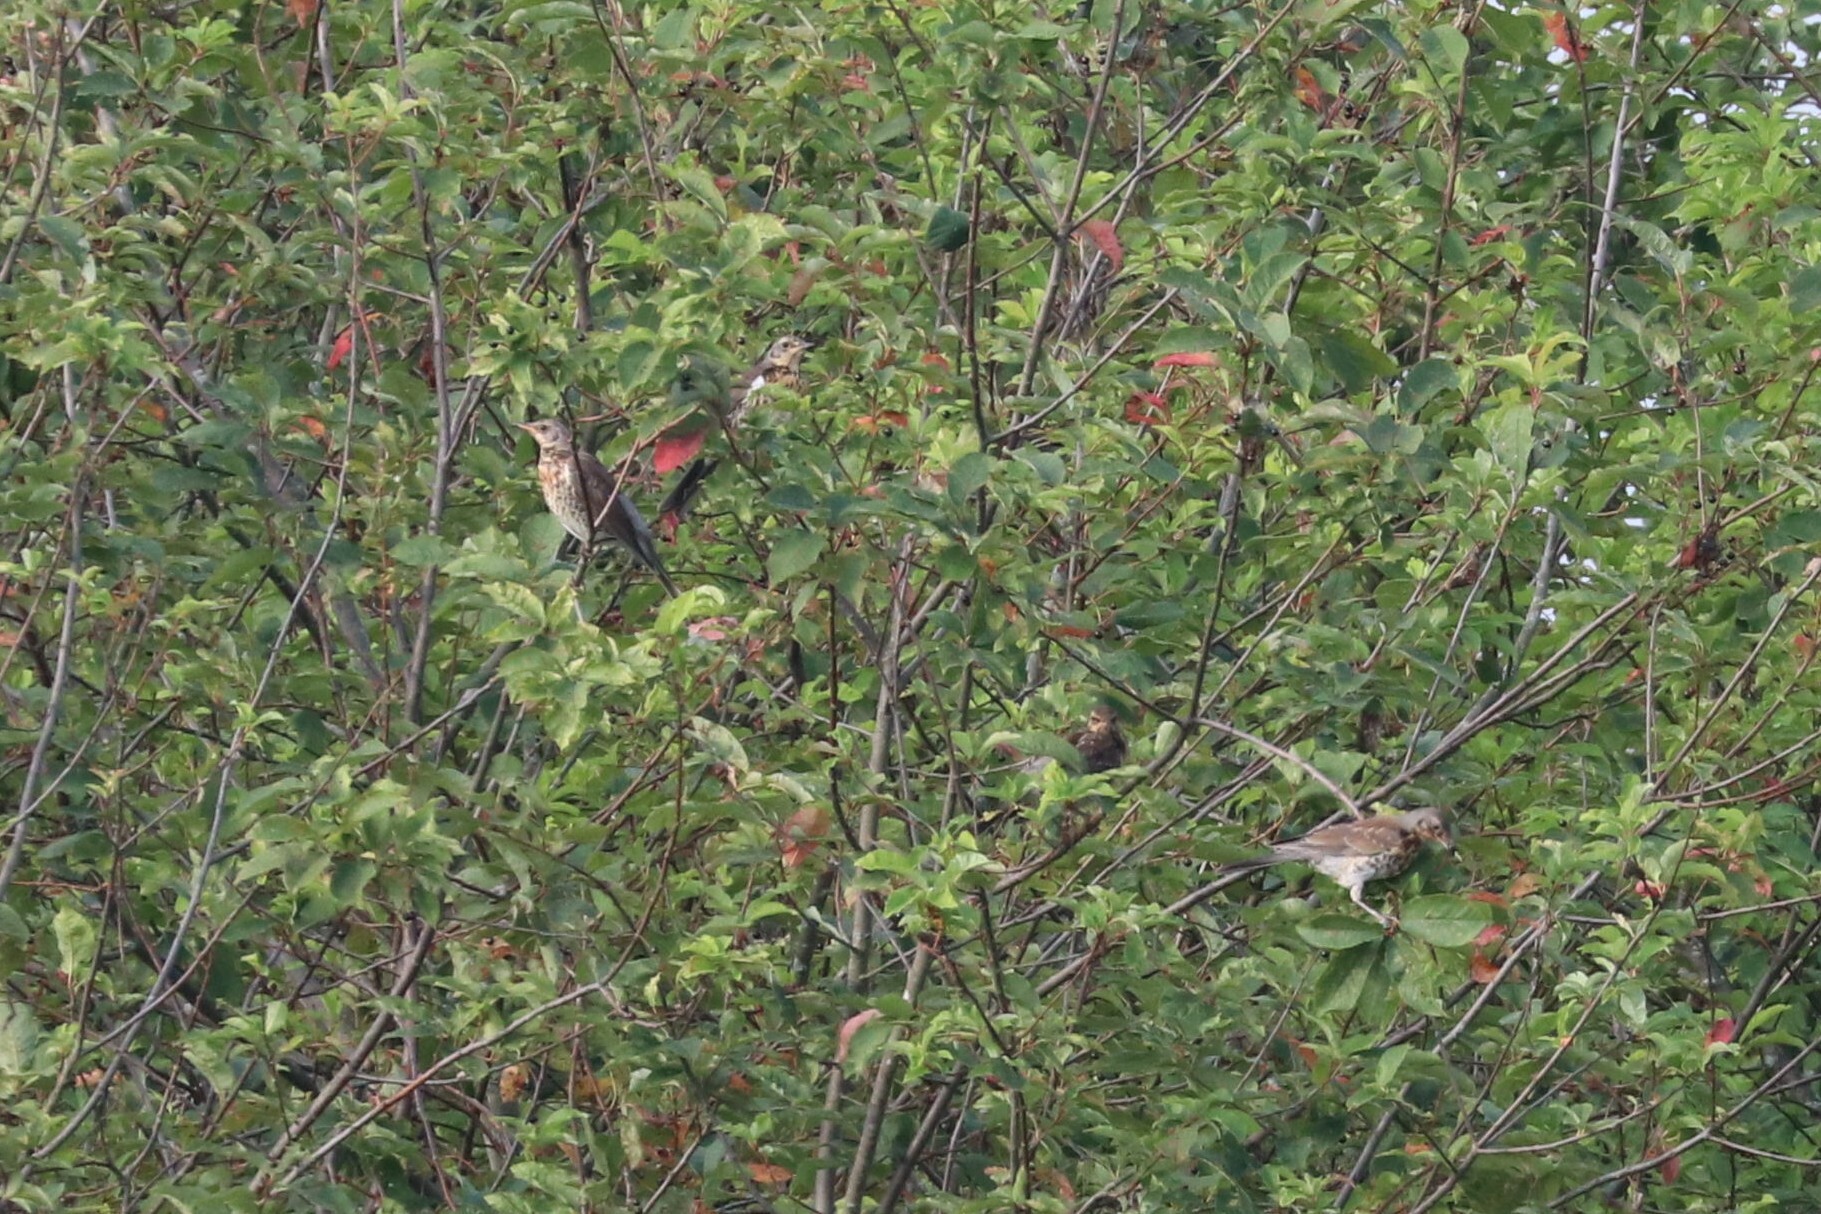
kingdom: Animalia
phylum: Chordata
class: Aves
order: Passeriformes
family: Turdidae
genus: Turdus
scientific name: Turdus pilaris
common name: Fieldfare
